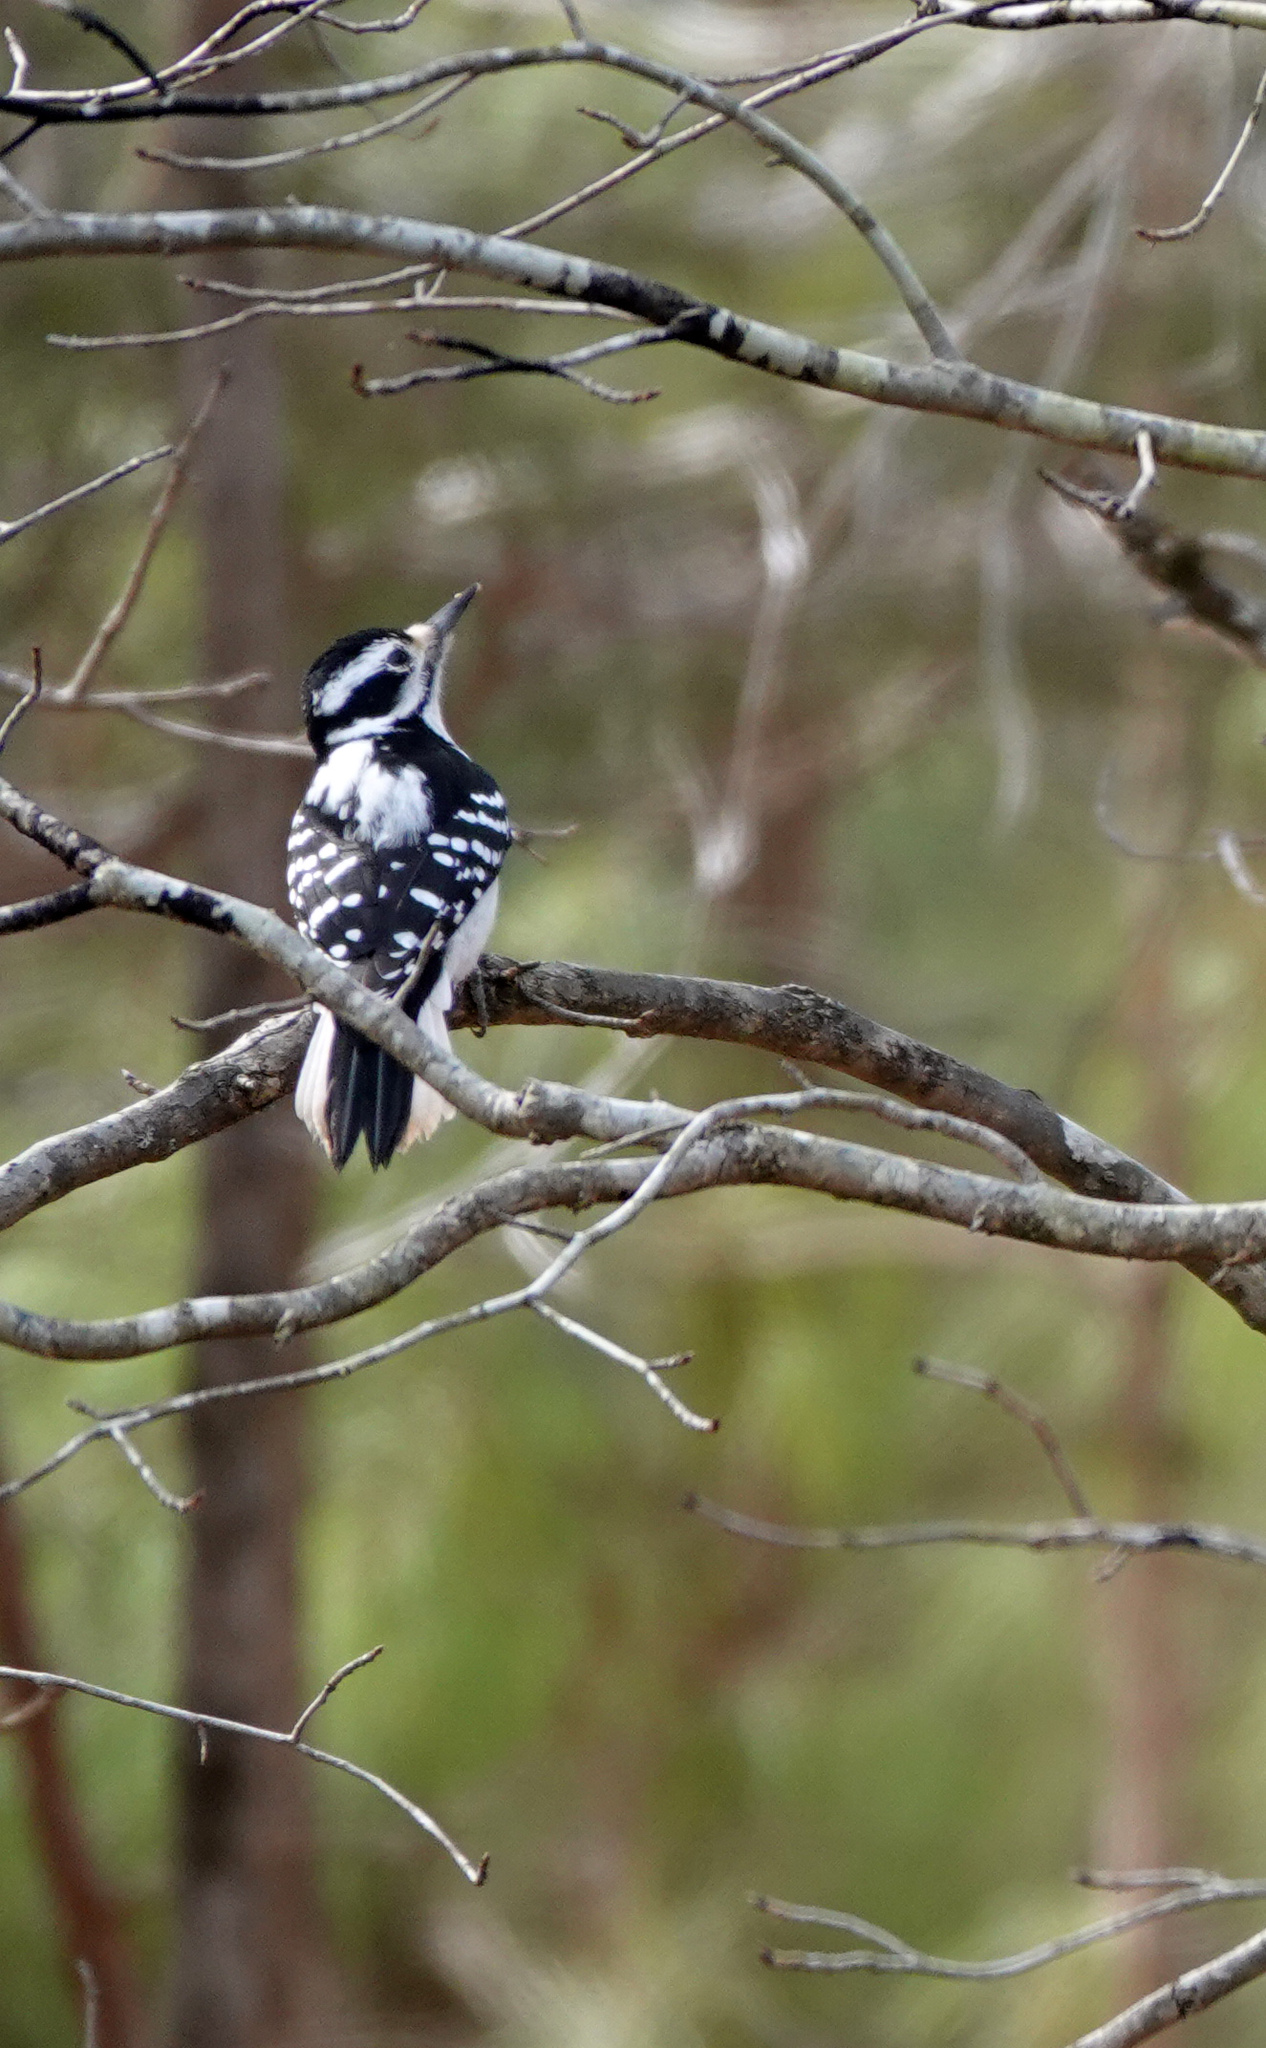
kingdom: Animalia
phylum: Chordata
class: Aves
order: Piciformes
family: Picidae
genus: Leuconotopicus
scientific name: Leuconotopicus villosus
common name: Hairy woodpecker
